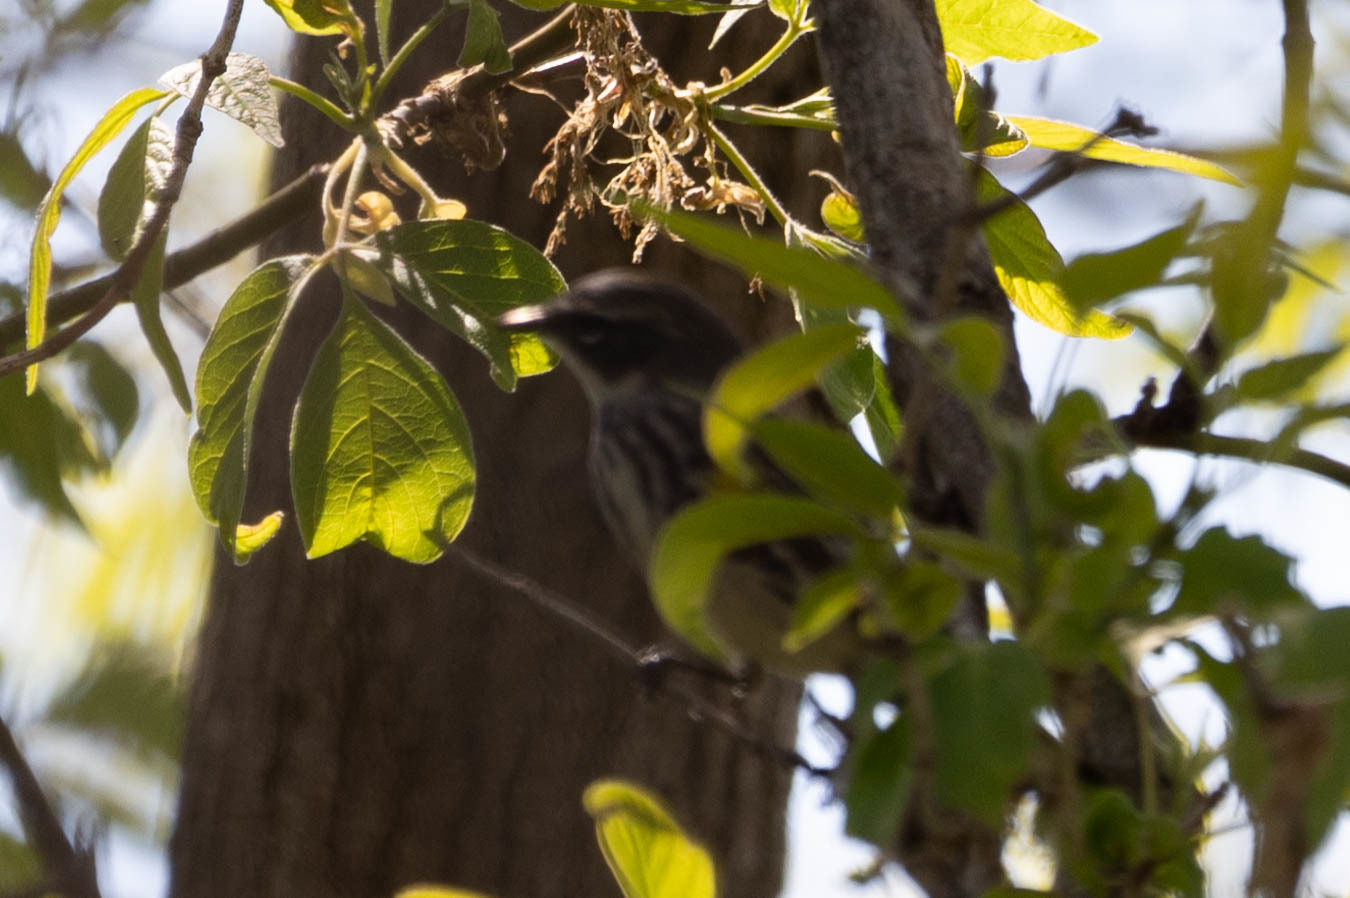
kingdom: Animalia
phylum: Chordata
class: Aves
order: Passeriformes
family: Parulidae
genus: Setophaga
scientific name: Setophaga coronata
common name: Myrtle warbler
